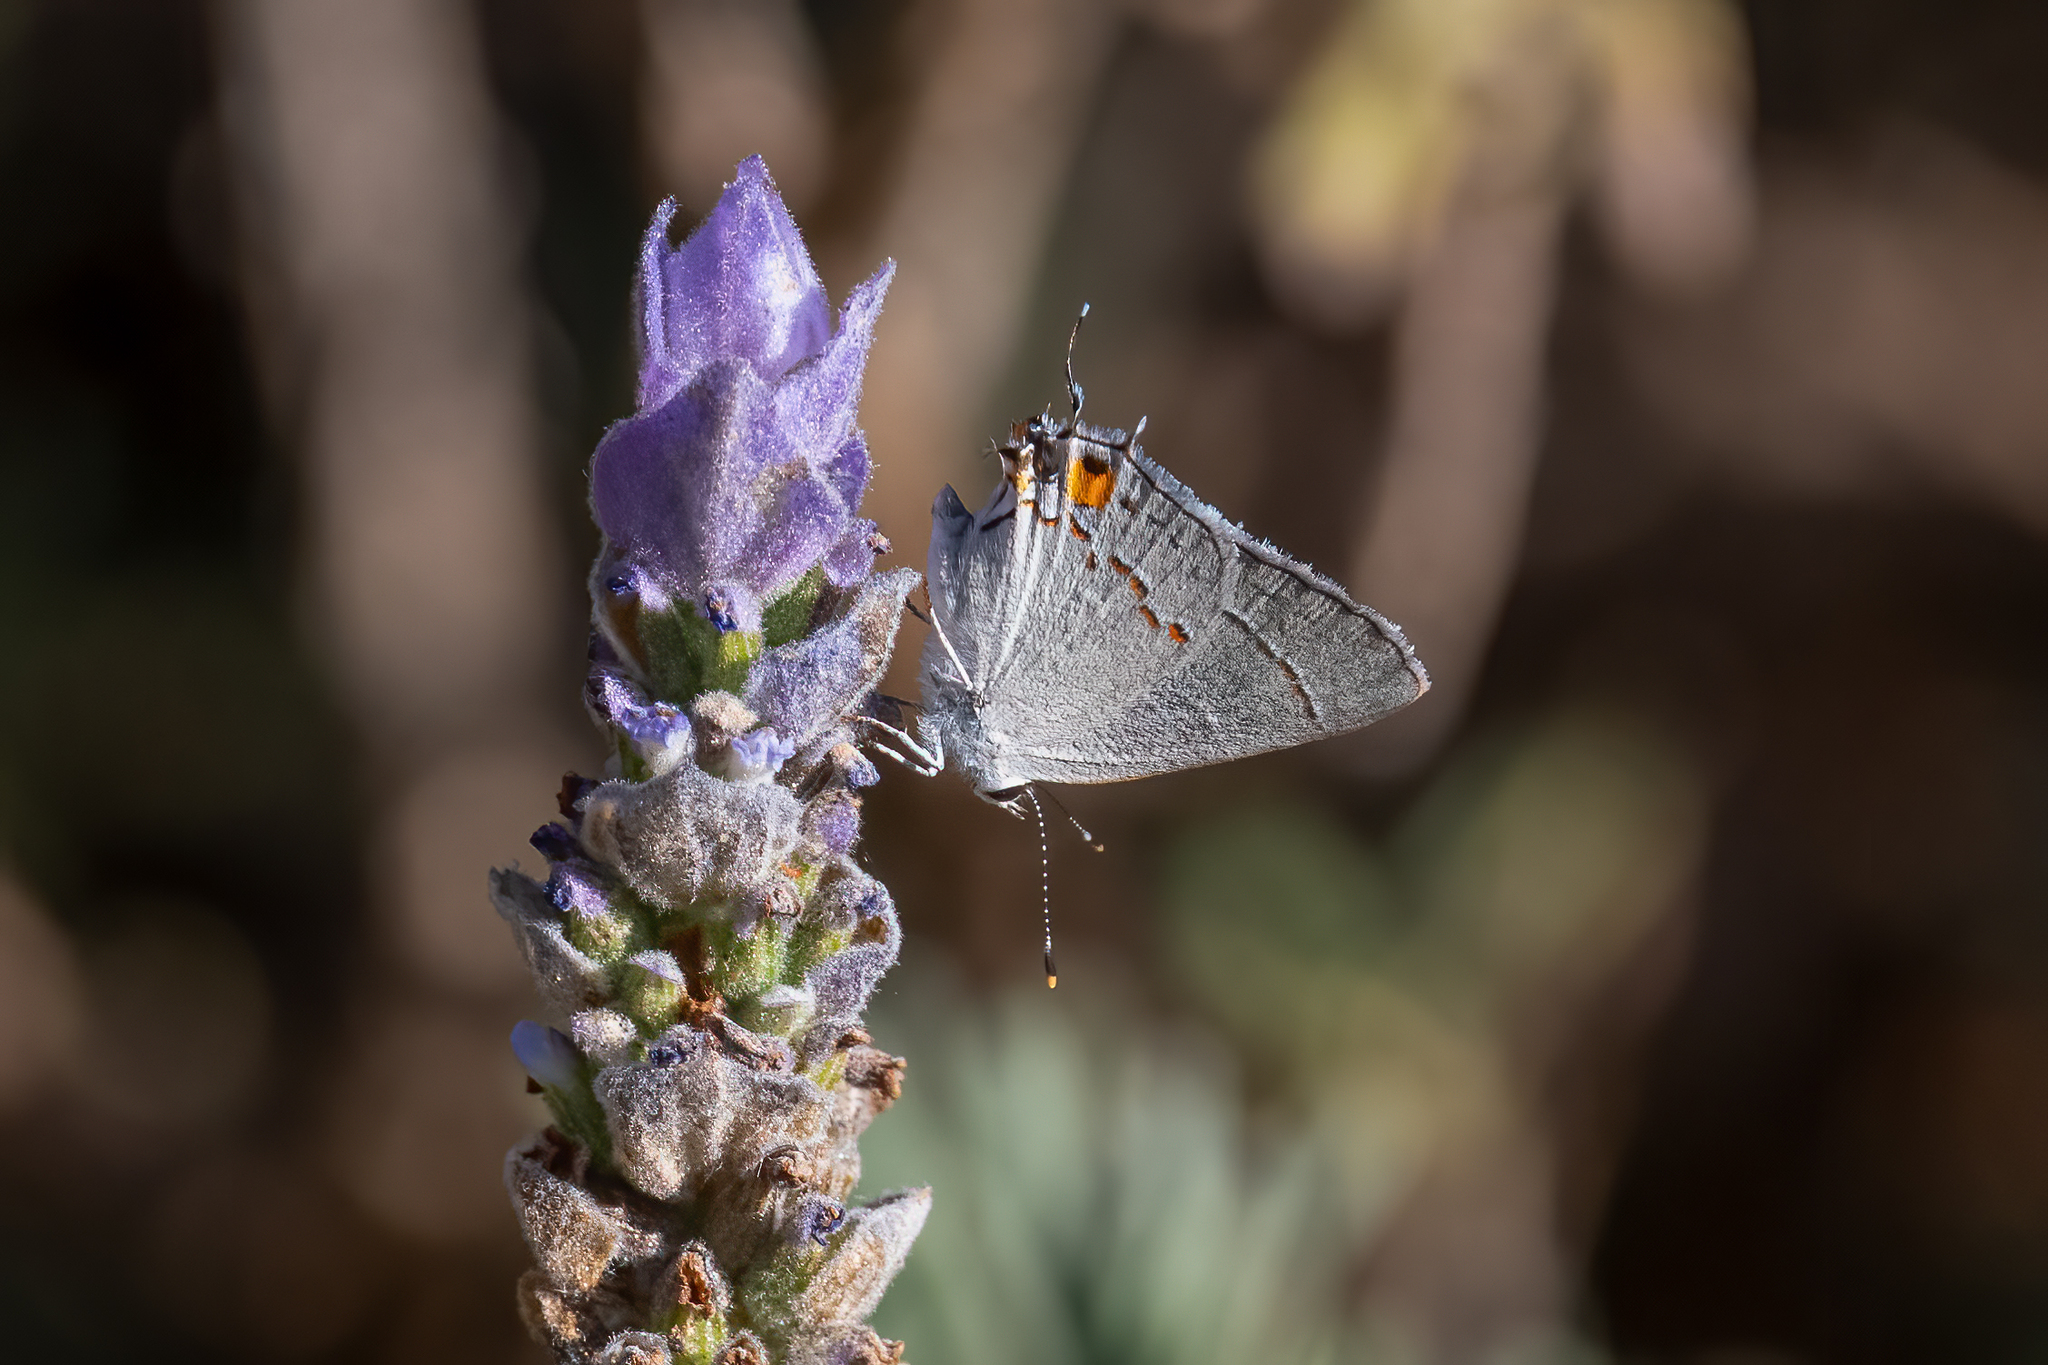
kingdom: Animalia
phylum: Arthropoda
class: Insecta
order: Lepidoptera
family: Lycaenidae
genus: Strymon
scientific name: Strymon melinus
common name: Gray hairstreak
